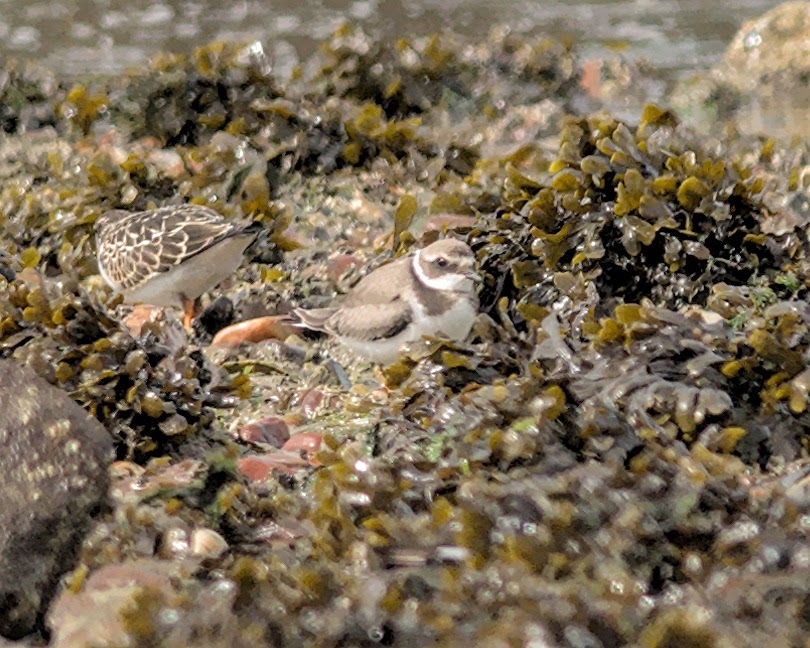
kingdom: Animalia
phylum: Chordata
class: Aves
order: Charadriiformes
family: Charadriidae
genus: Charadrius
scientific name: Charadrius hiaticula
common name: Common ringed plover
